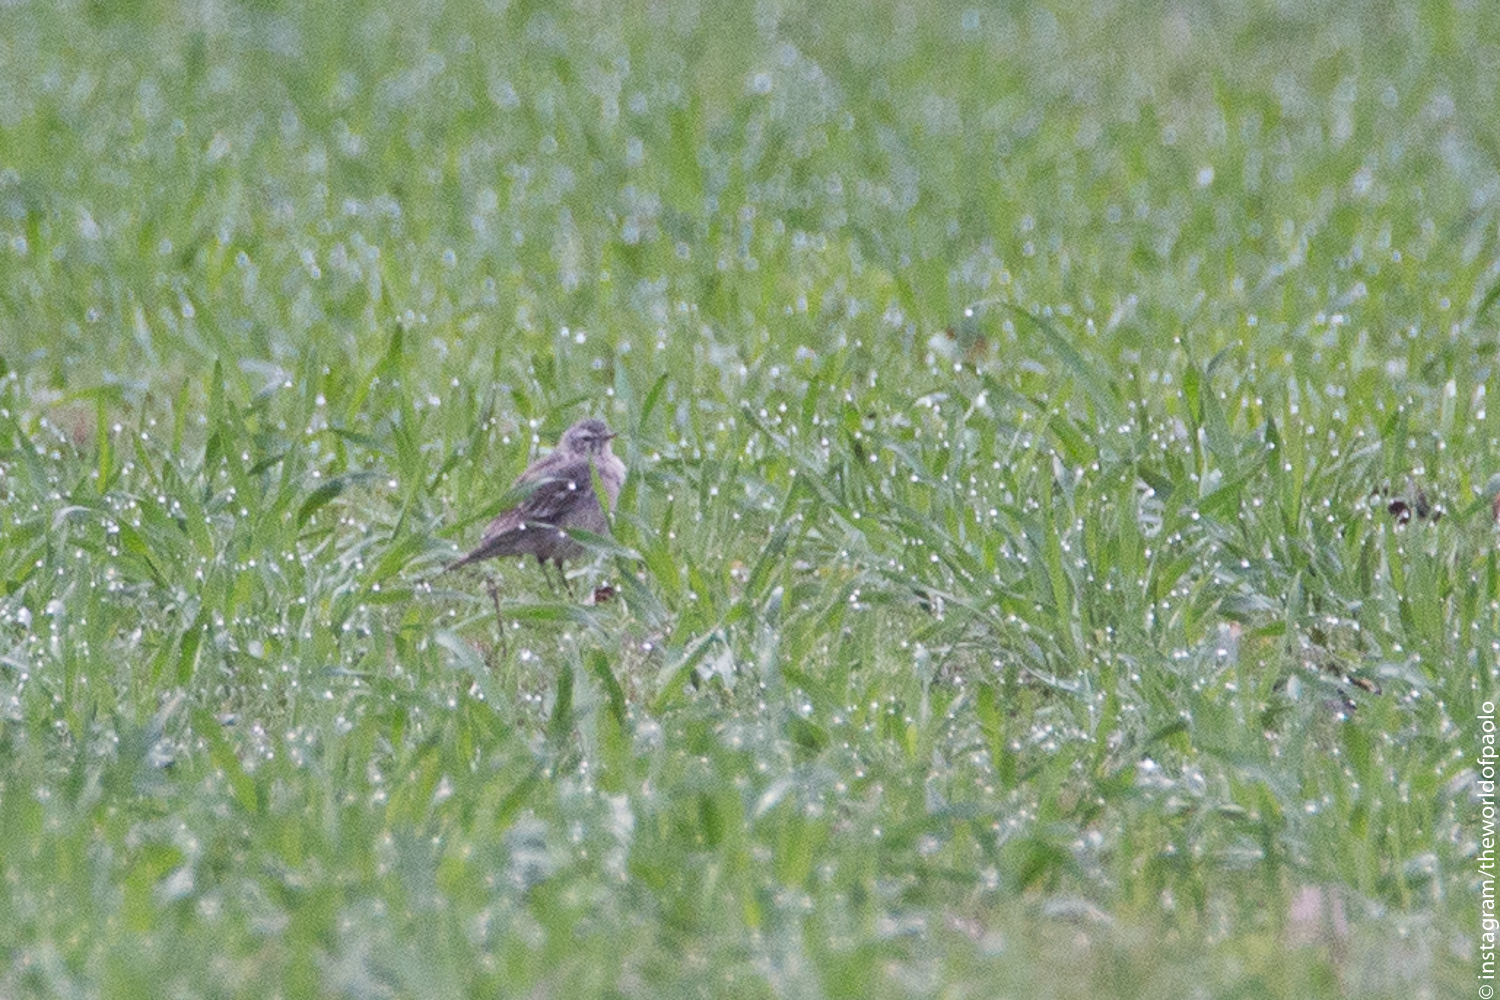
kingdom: Animalia
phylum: Chordata
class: Aves
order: Passeriformes
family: Motacillidae
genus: Anthus
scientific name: Anthus spinoletta
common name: Water pipit
